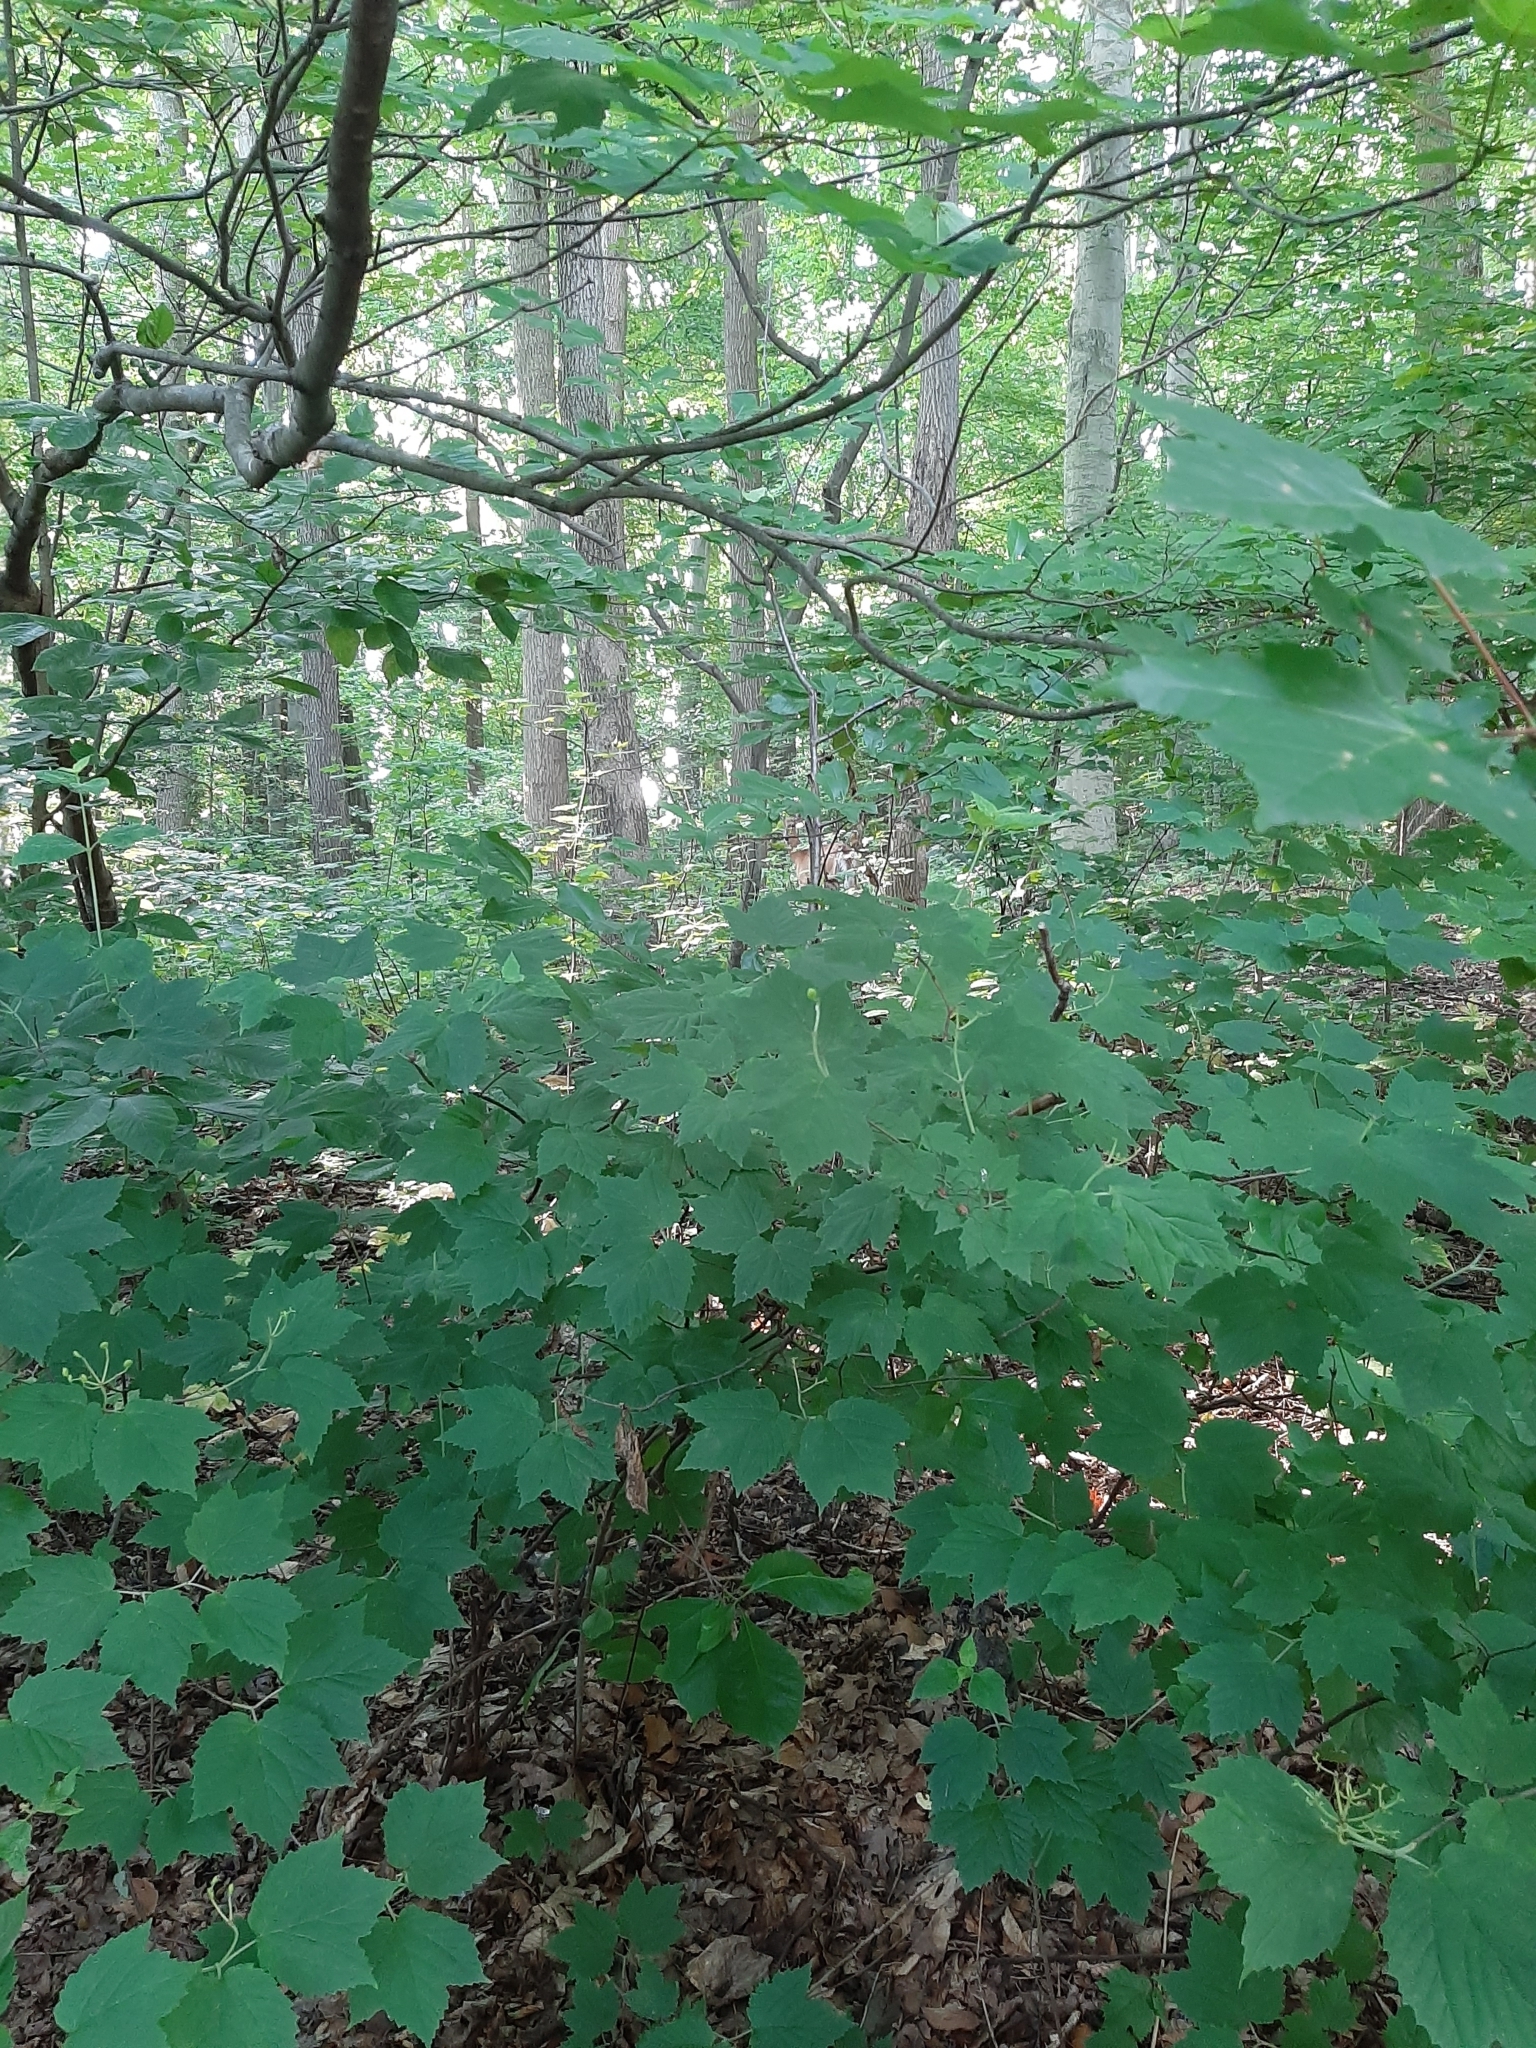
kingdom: Animalia
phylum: Chordata
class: Mammalia
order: Artiodactyla
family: Cervidae
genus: Odocoileus
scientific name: Odocoileus virginianus
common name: White-tailed deer
